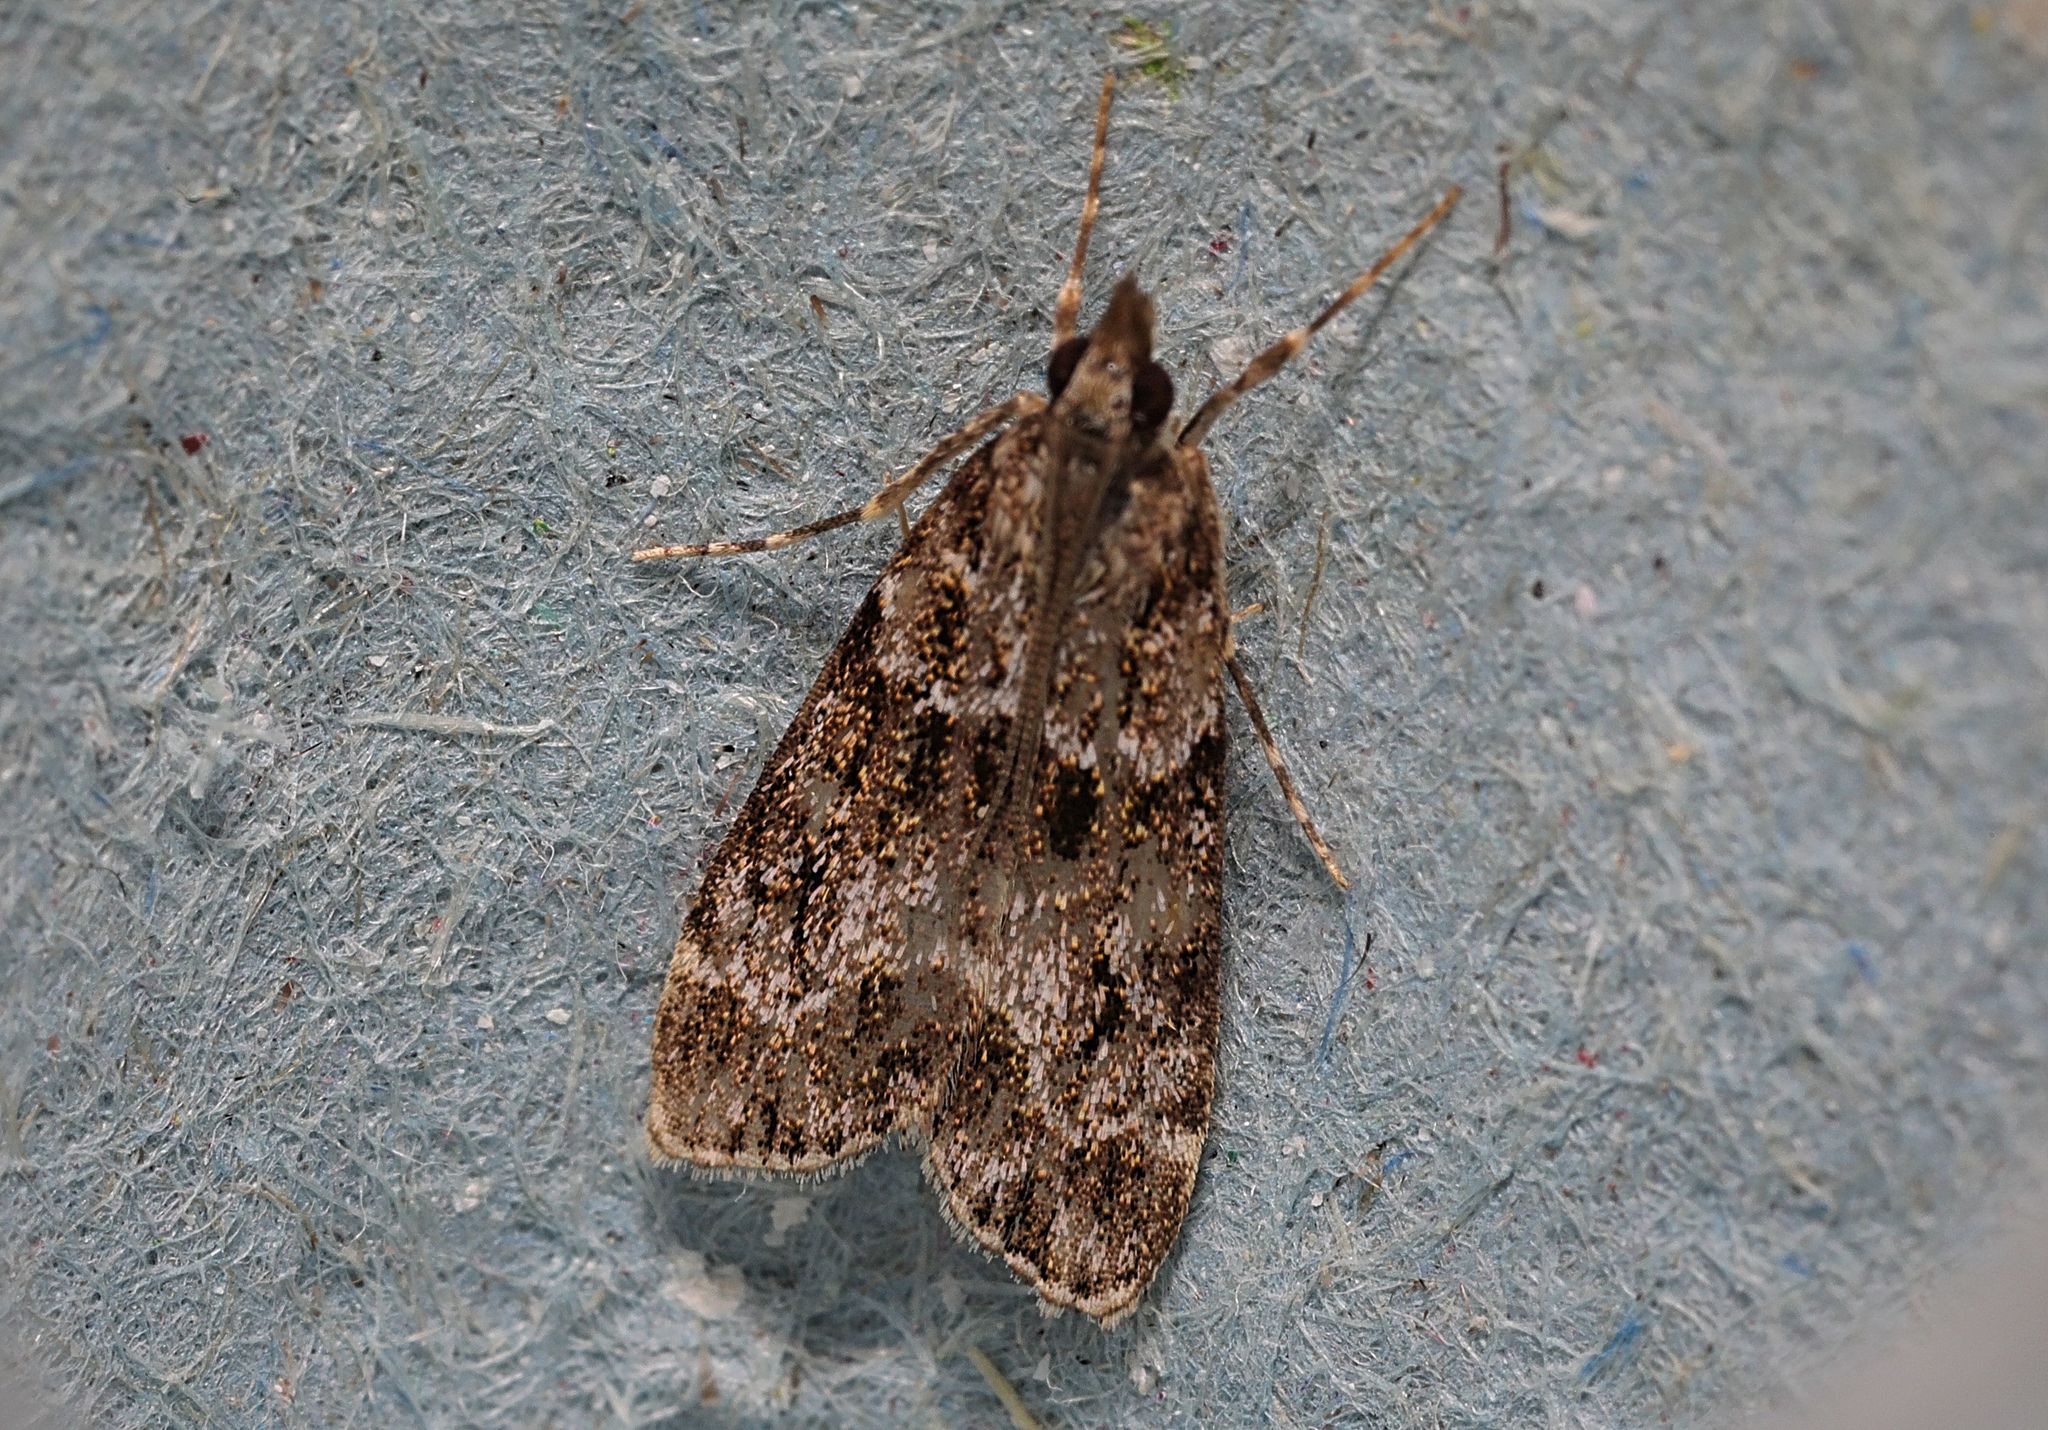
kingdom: Animalia
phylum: Arthropoda
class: Insecta
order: Lepidoptera
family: Crambidae
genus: Eudonia
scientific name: Eudonia mercurella
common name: Small grey
